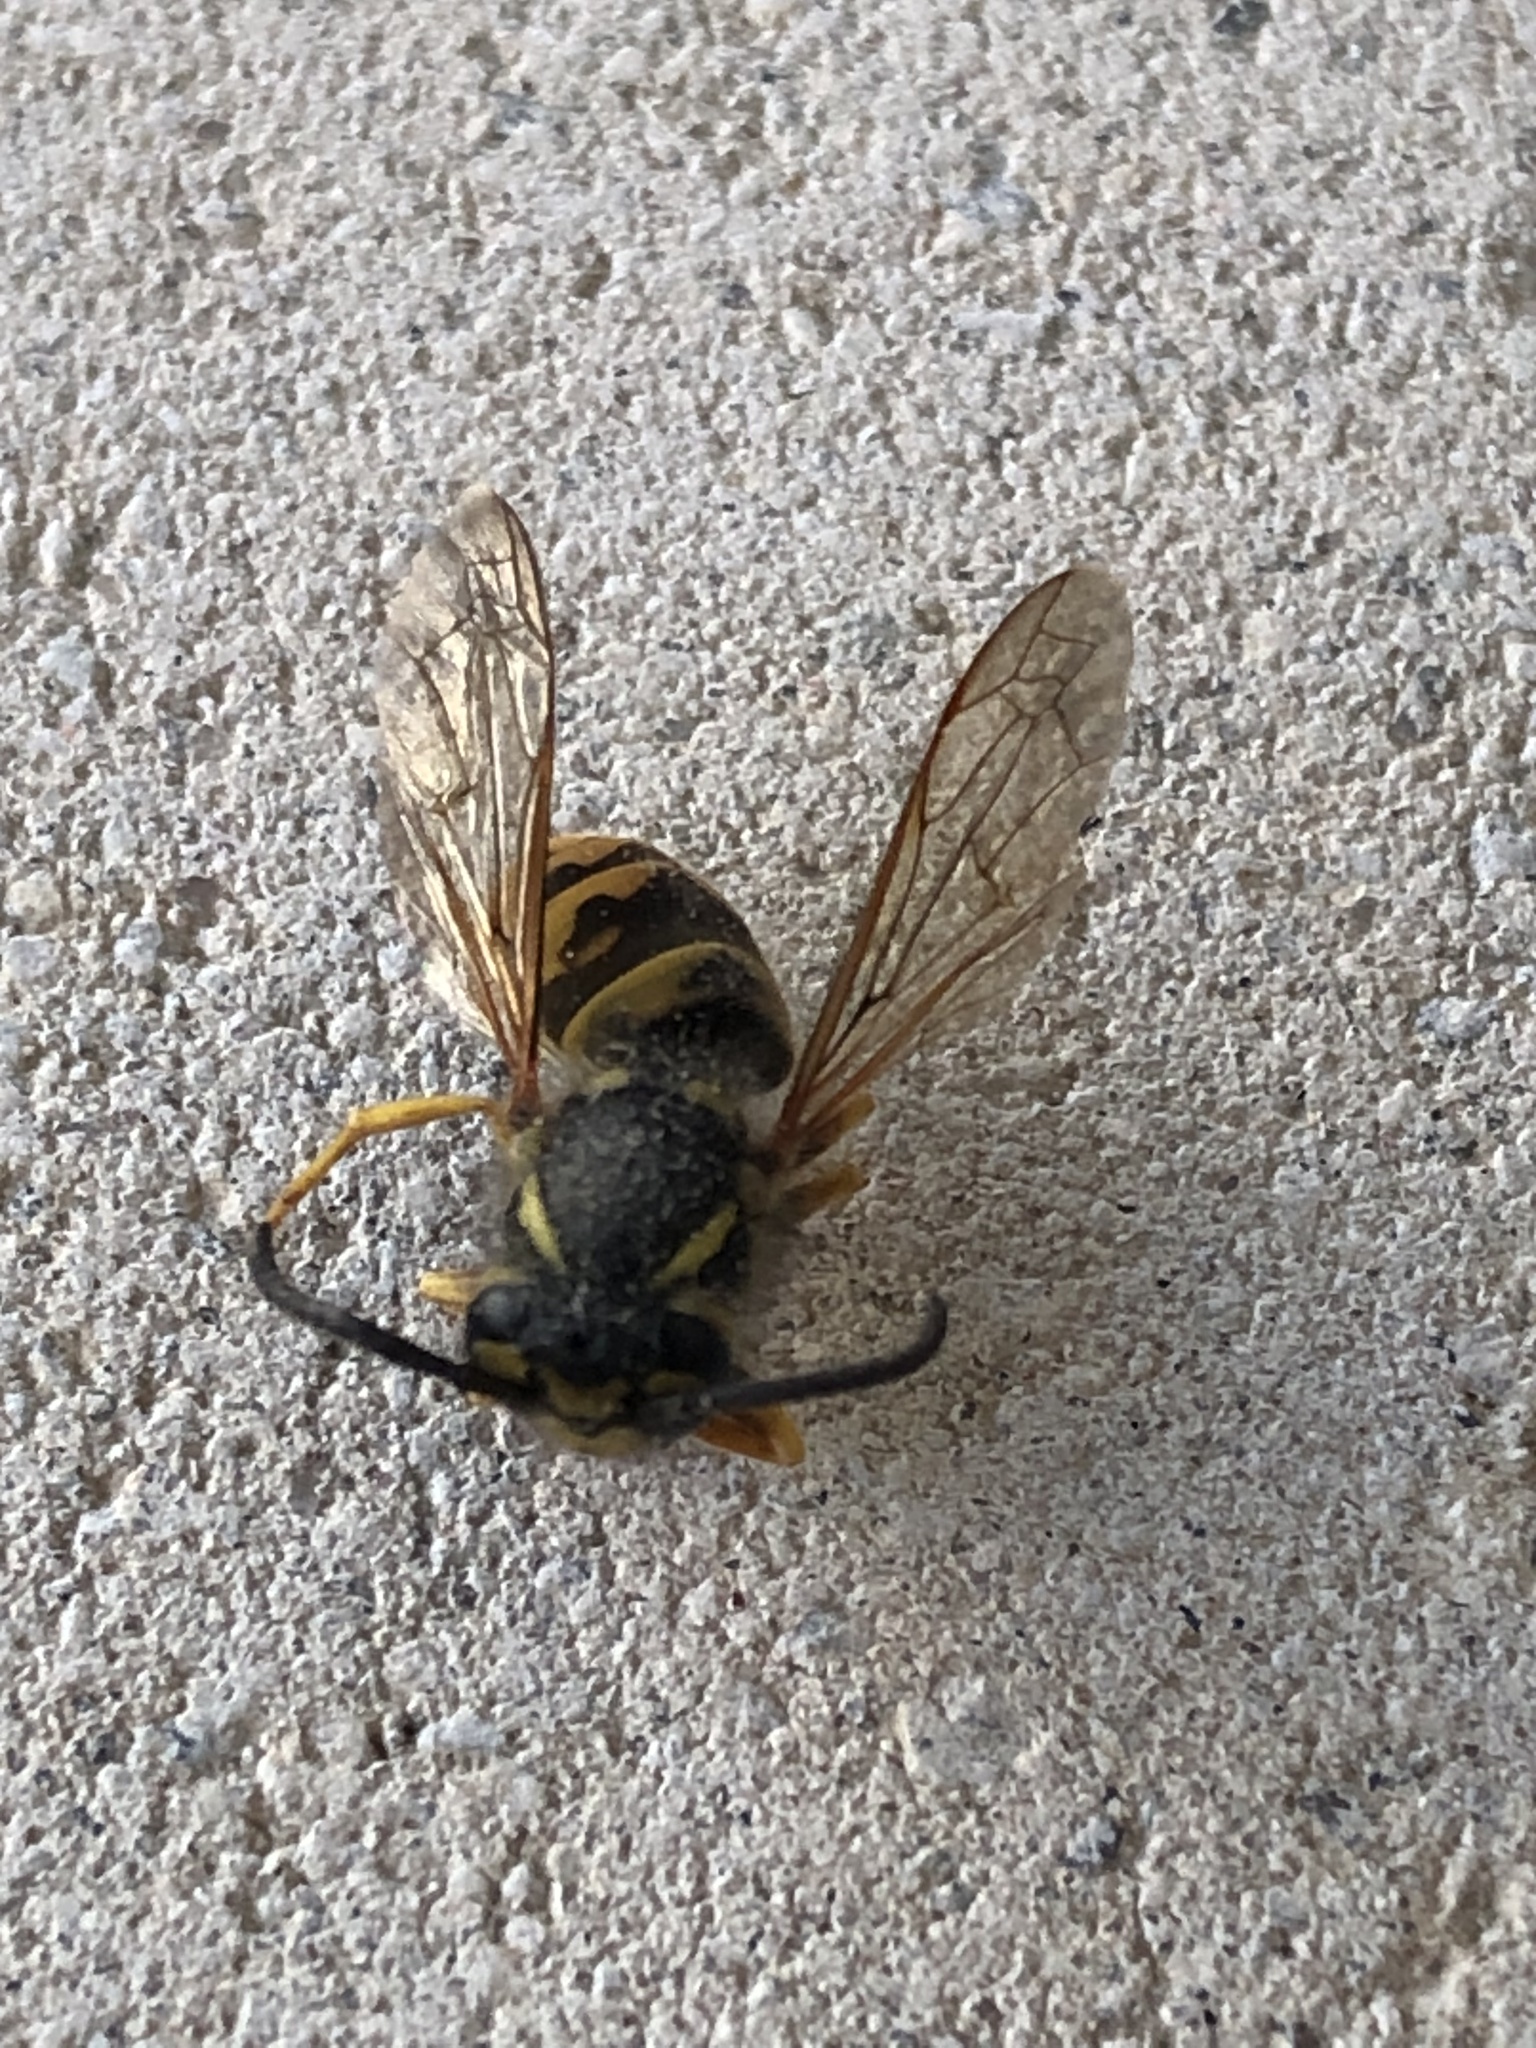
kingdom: Animalia
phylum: Arthropoda
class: Insecta
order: Hymenoptera
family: Vespidae
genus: Vespula
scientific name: Vespula germanica
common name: German wasp
